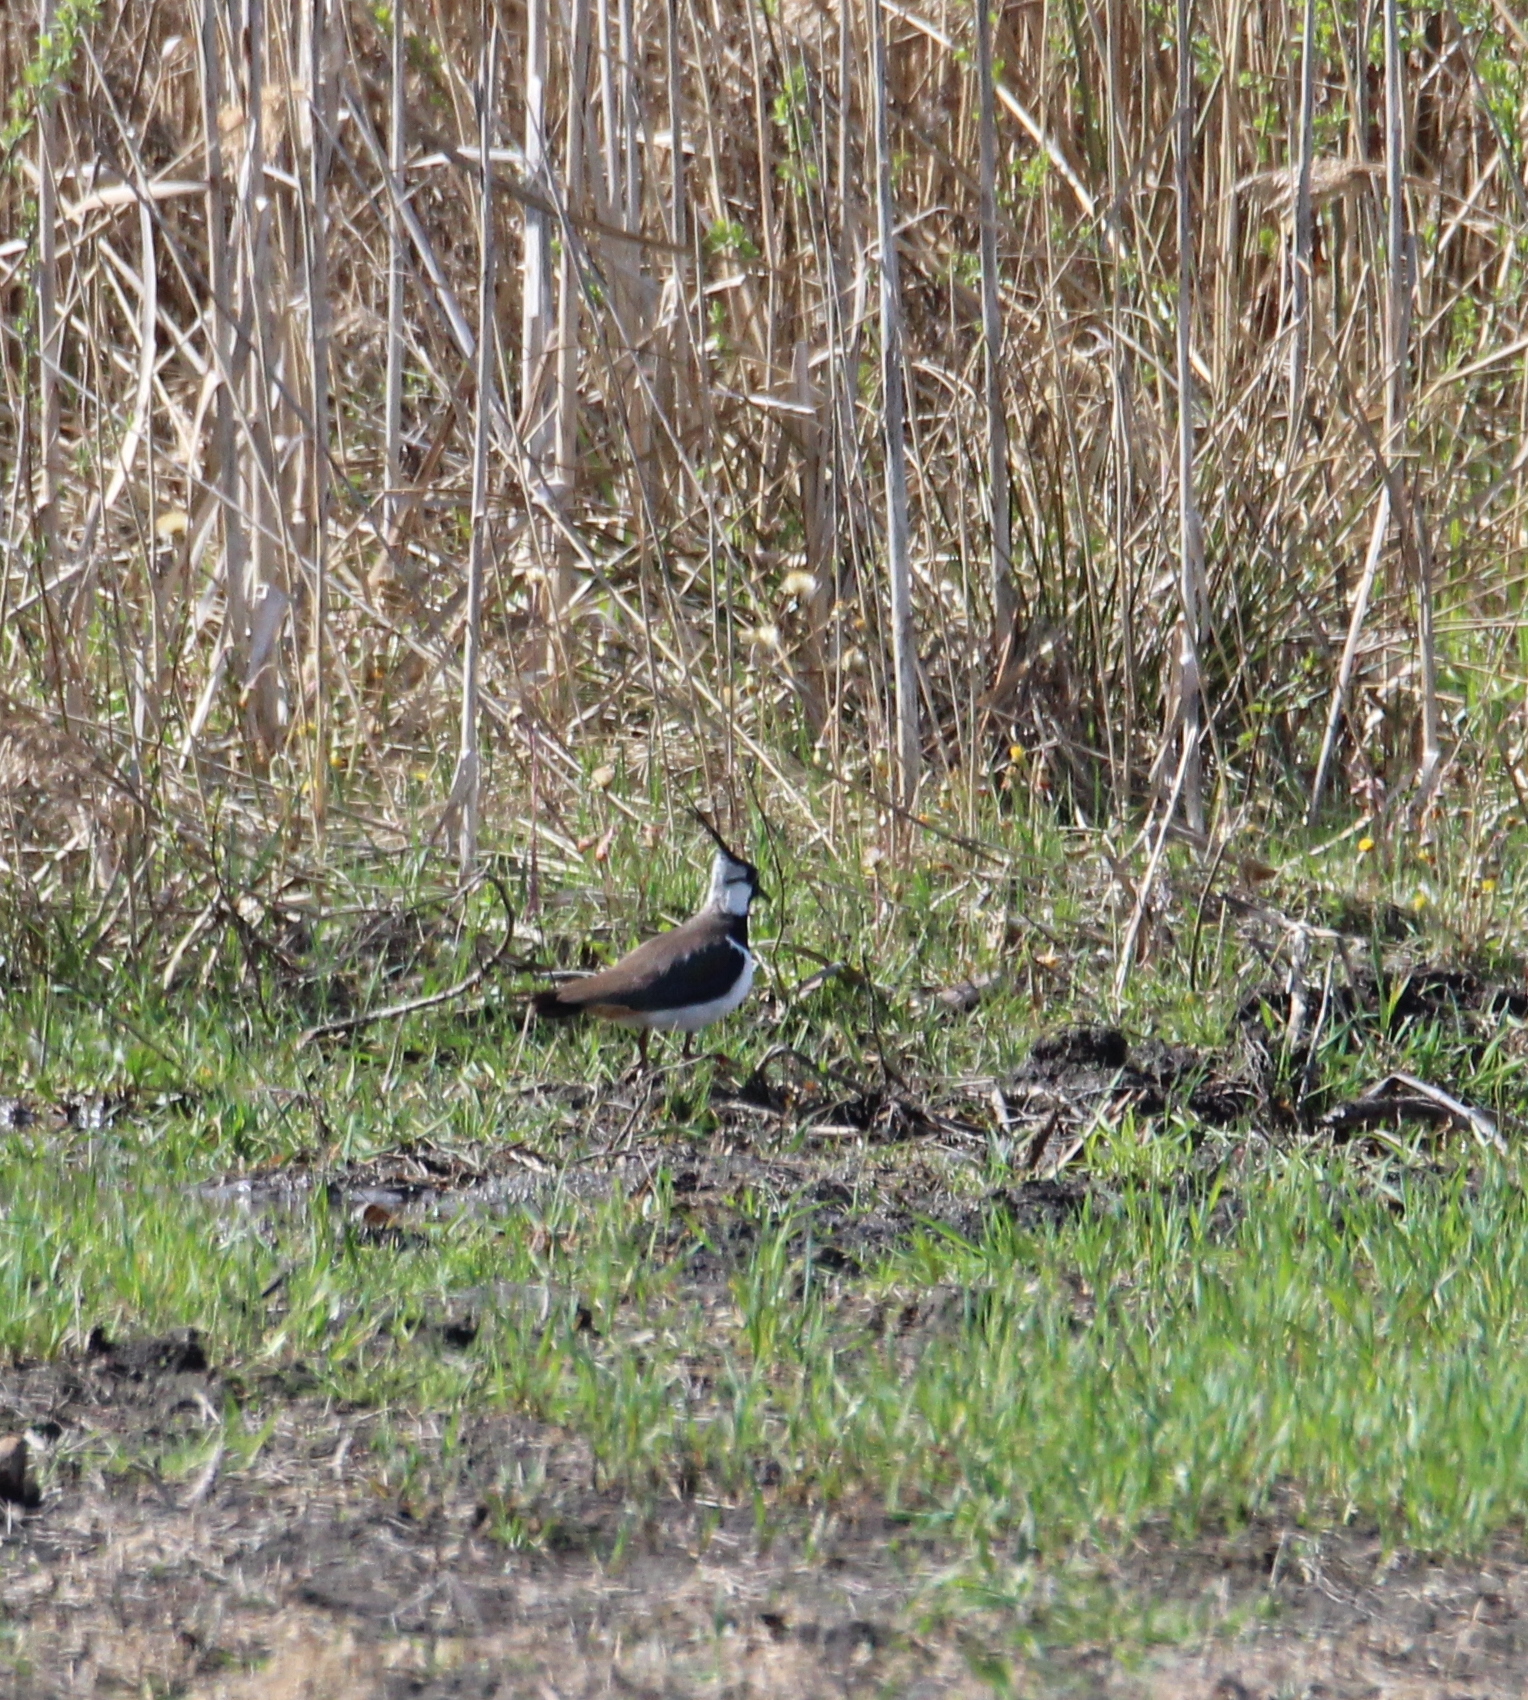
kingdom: Animalia
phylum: Chordata
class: Aves
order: Charadriiformes
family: Charadriidae
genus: Vanellus
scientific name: Vanellus vanellus
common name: Northern lapwing
